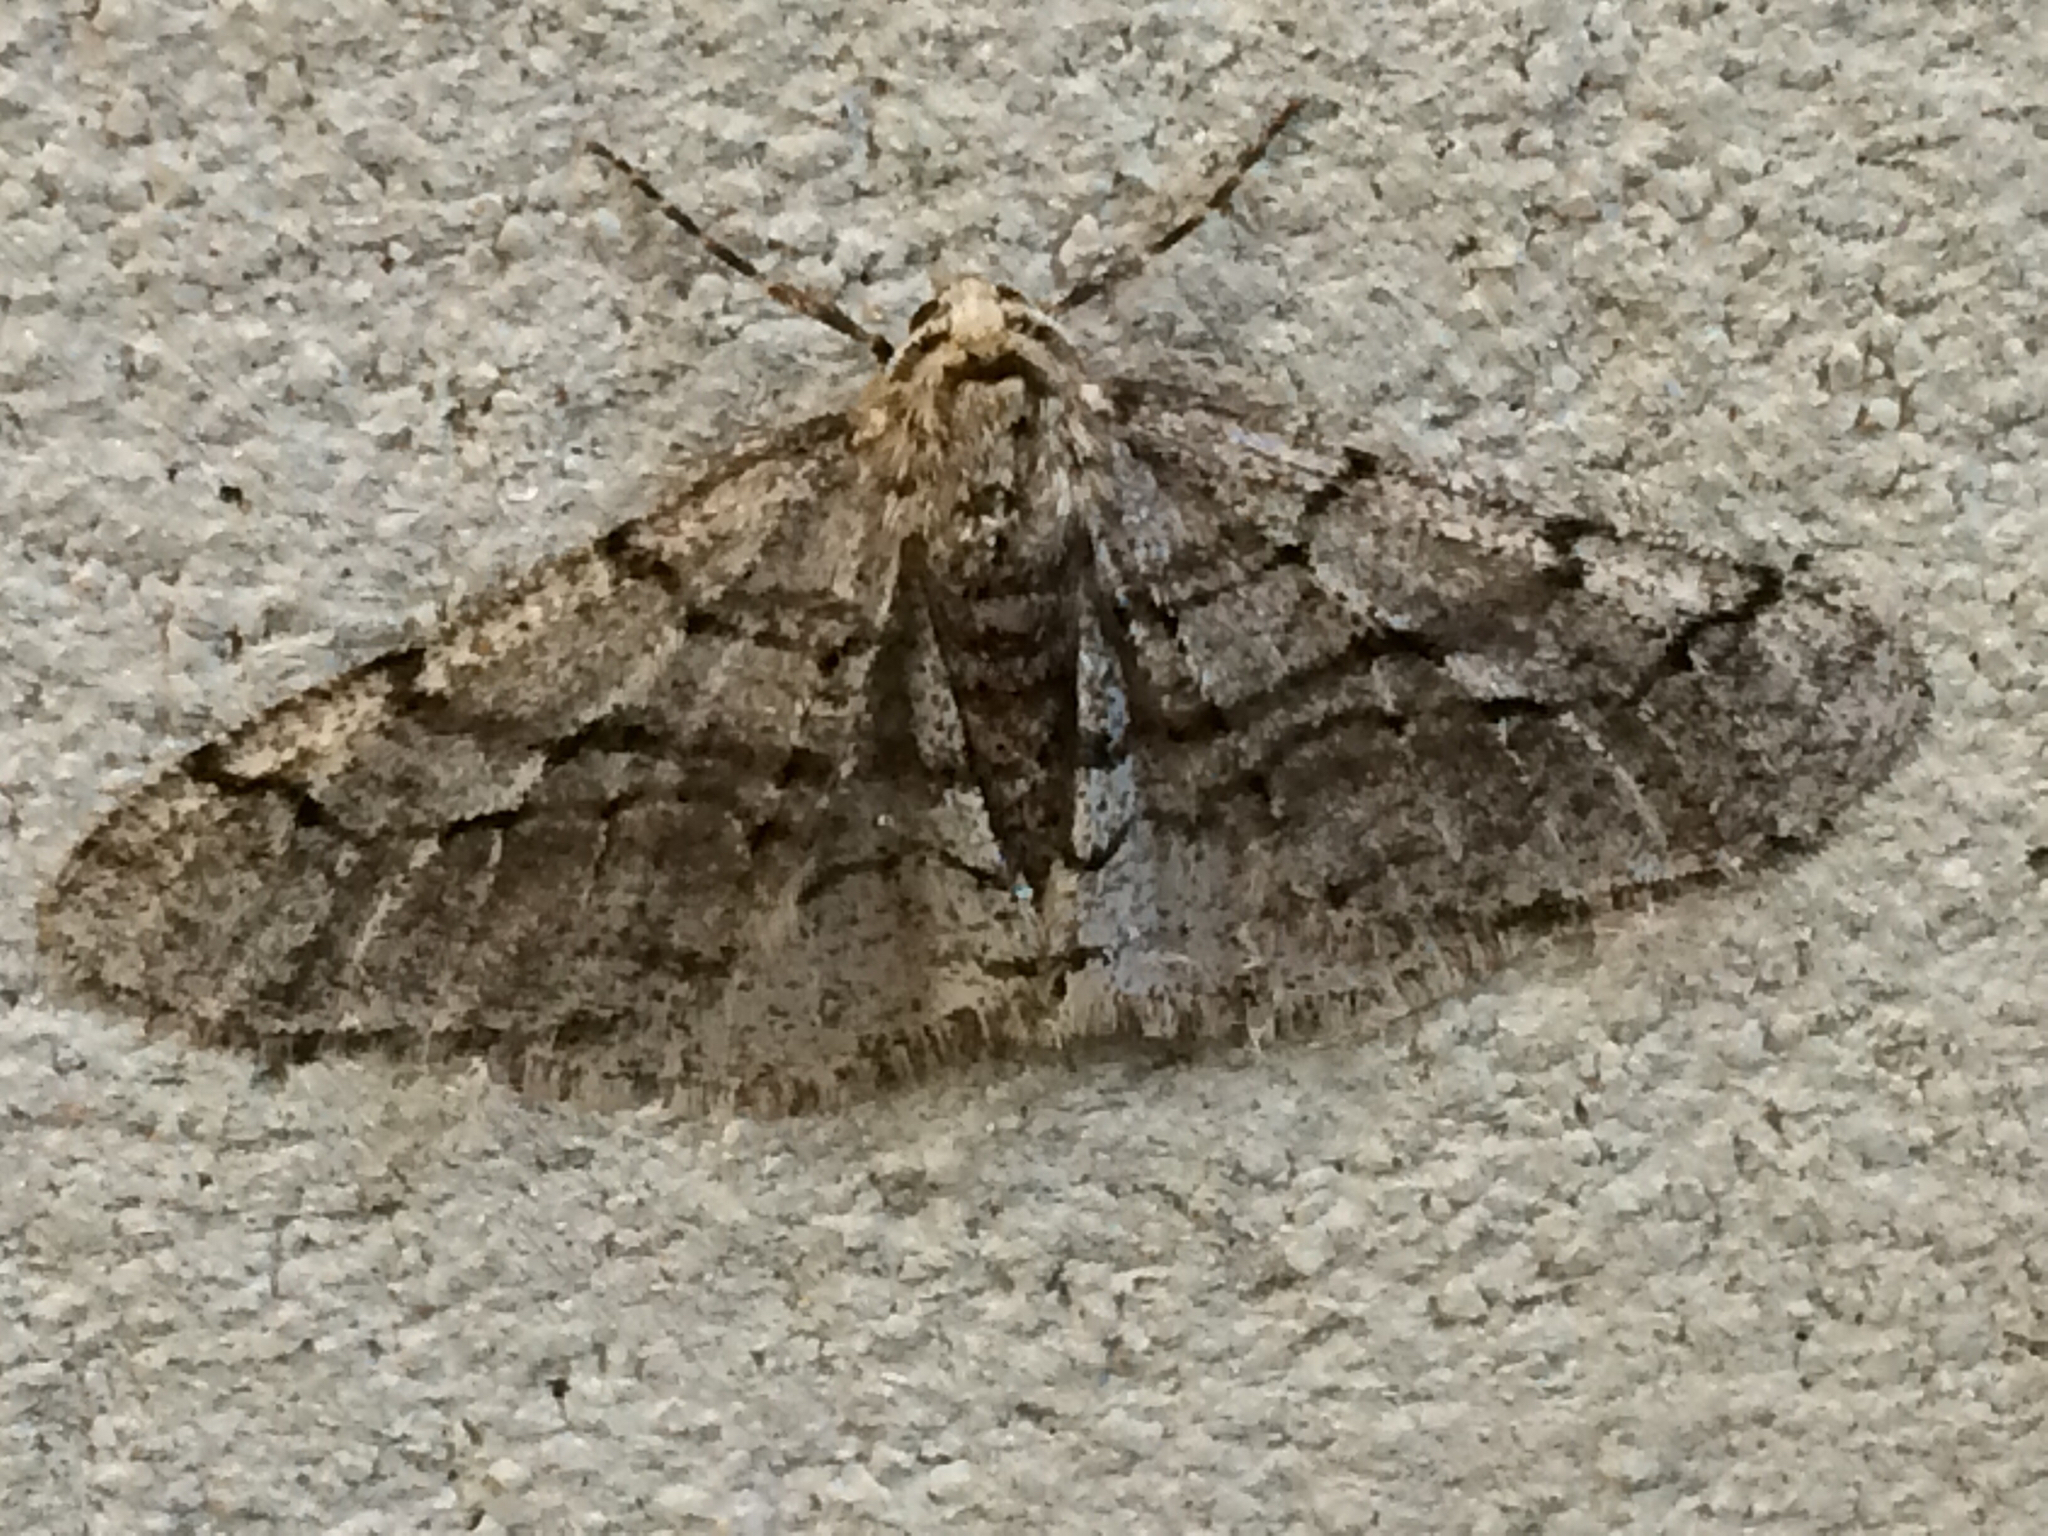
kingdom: Animalia
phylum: Arthropoda
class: Insecta
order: Lepidoptera
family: Geometridae
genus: Phigalia
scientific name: Phigalia titea
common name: Spiny looper
